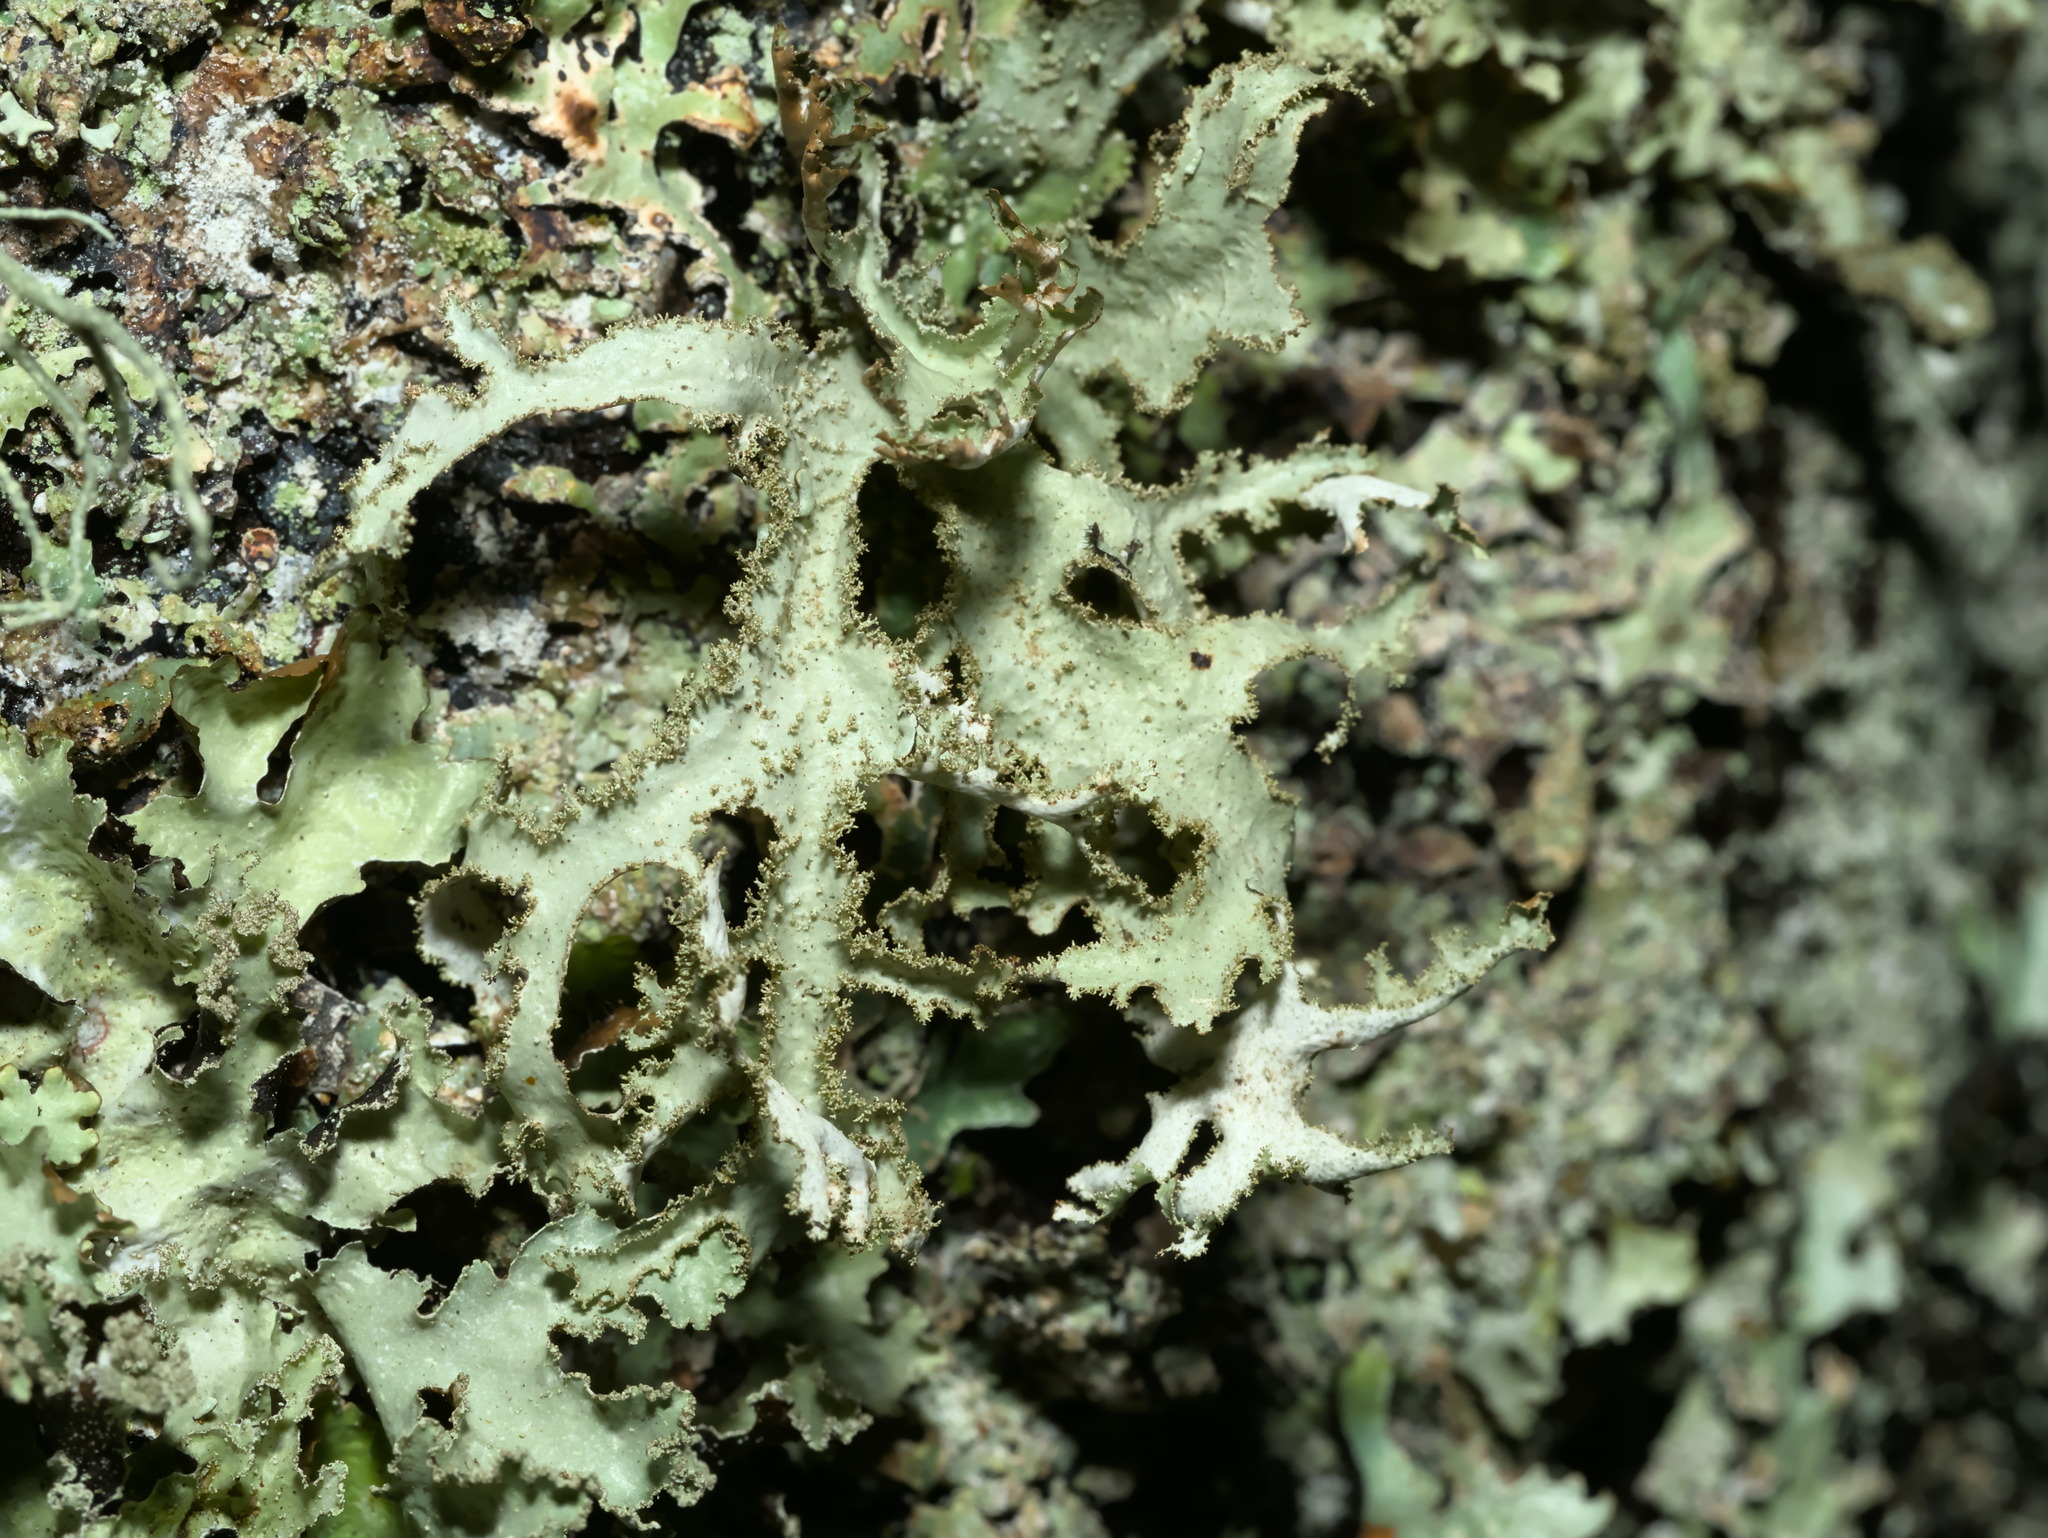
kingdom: Fungi
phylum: Ascomycota
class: Lecanoromycetes
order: Lecanorales
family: Parmeliaceae
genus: Platismatia
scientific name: Platismatia herrei
